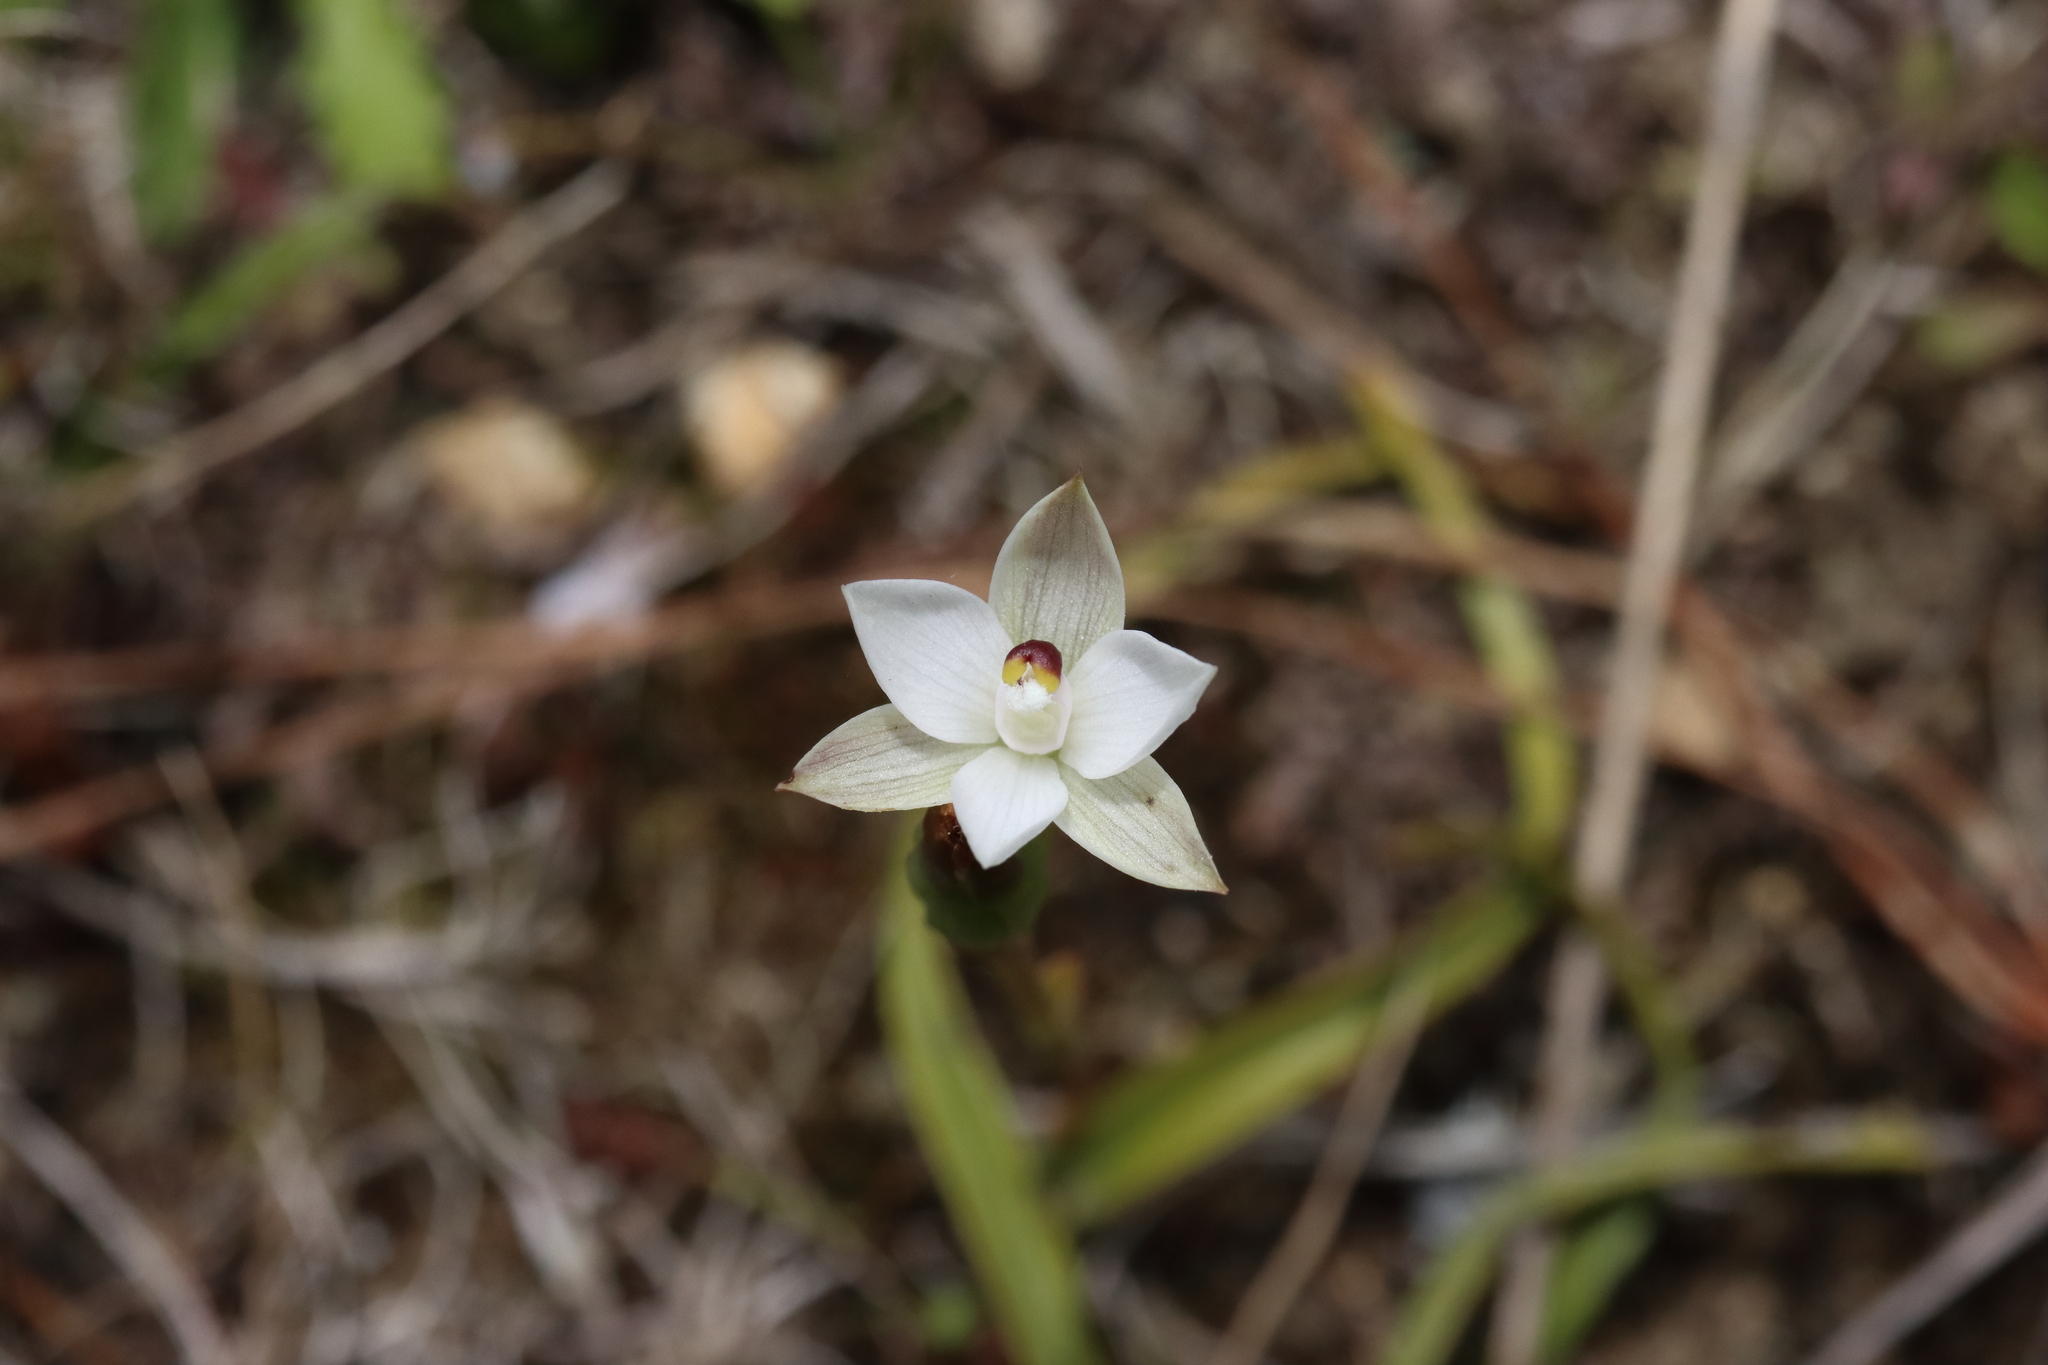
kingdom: Plantae
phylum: Tracheophyta
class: Liliopsida
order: Asparagales
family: Orchidaceae
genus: Thelymitra
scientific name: Thelymitra longifolia
